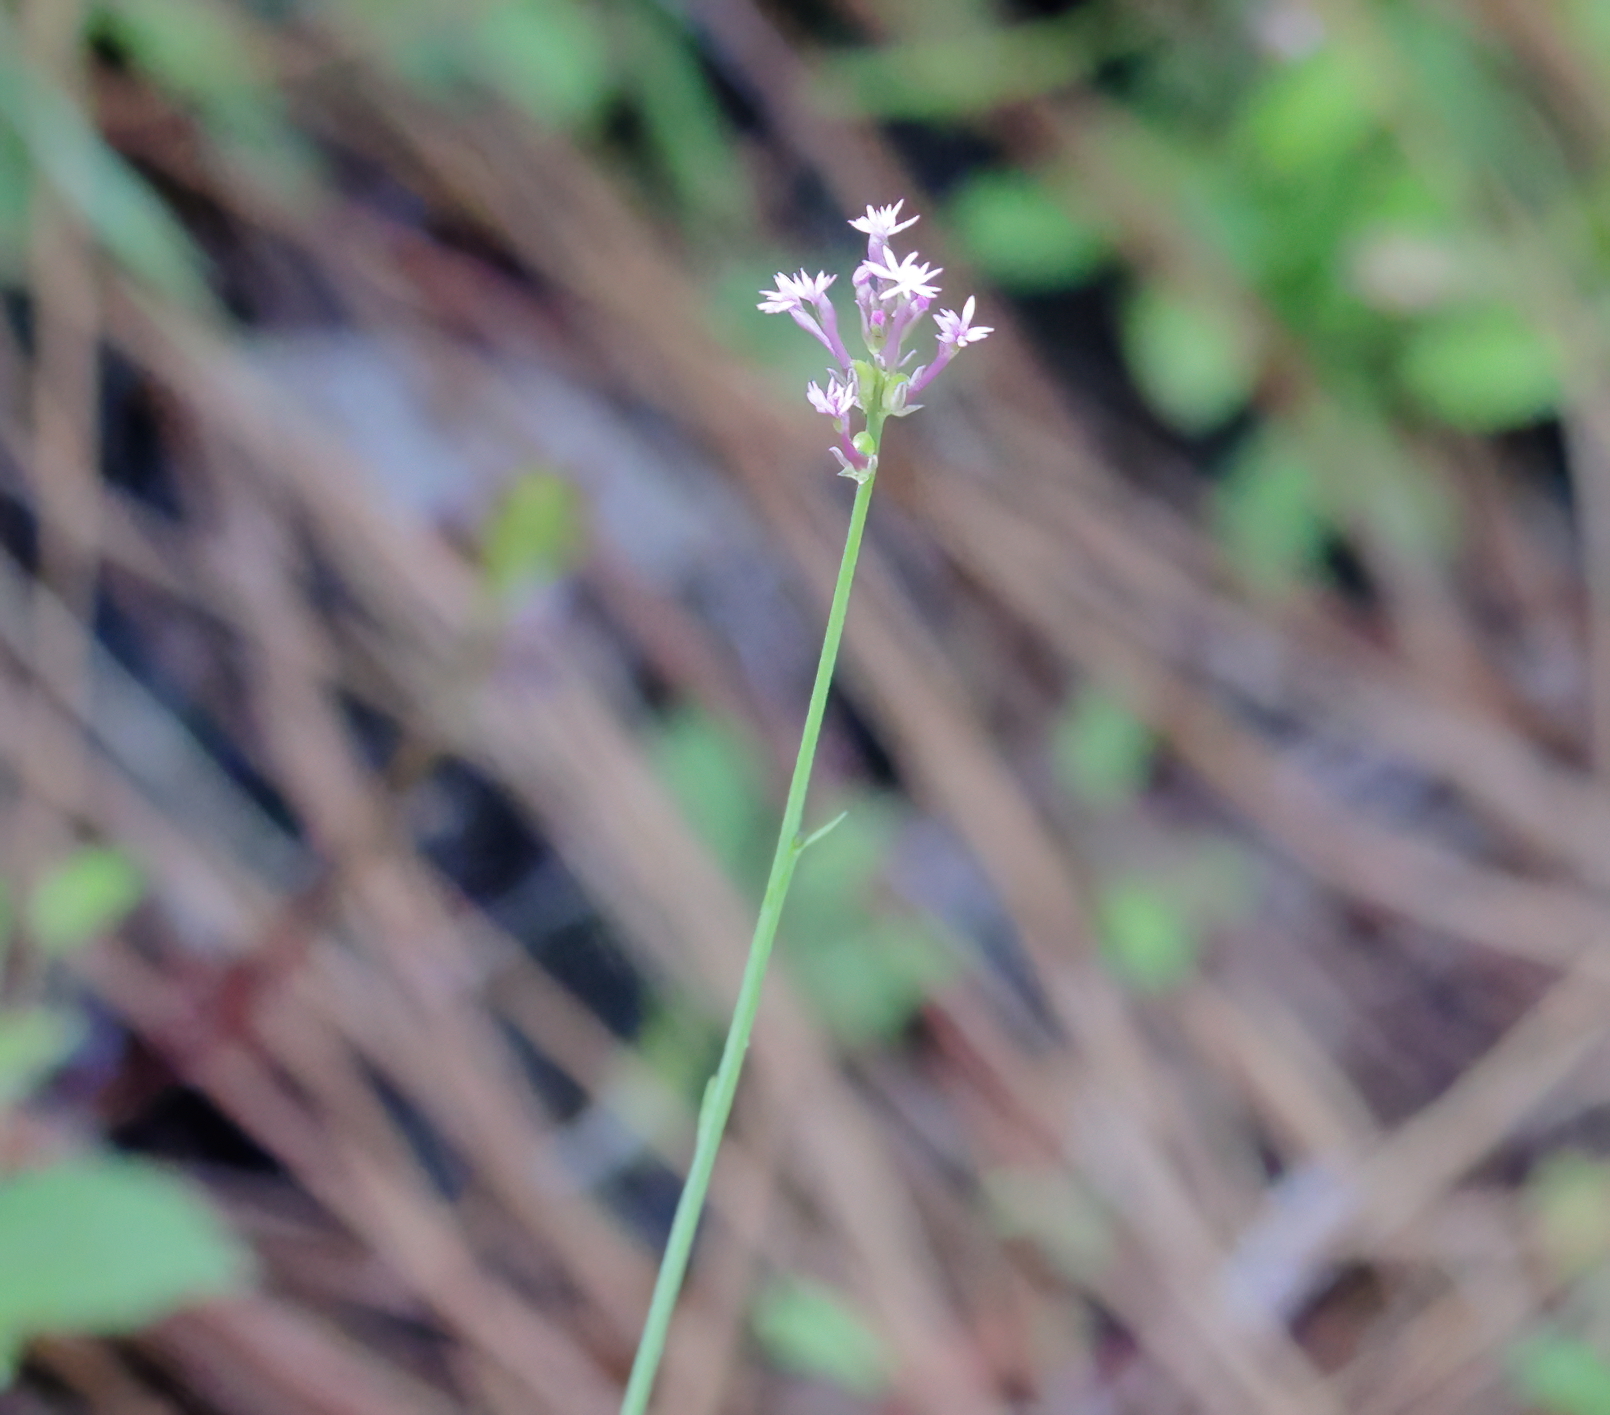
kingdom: Plantae
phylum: Tracheophyta
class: Magnoliopsida
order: Fabales
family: Polygalaceae
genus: Polygala
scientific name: Polygala incarnata
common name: Pink milkwort
